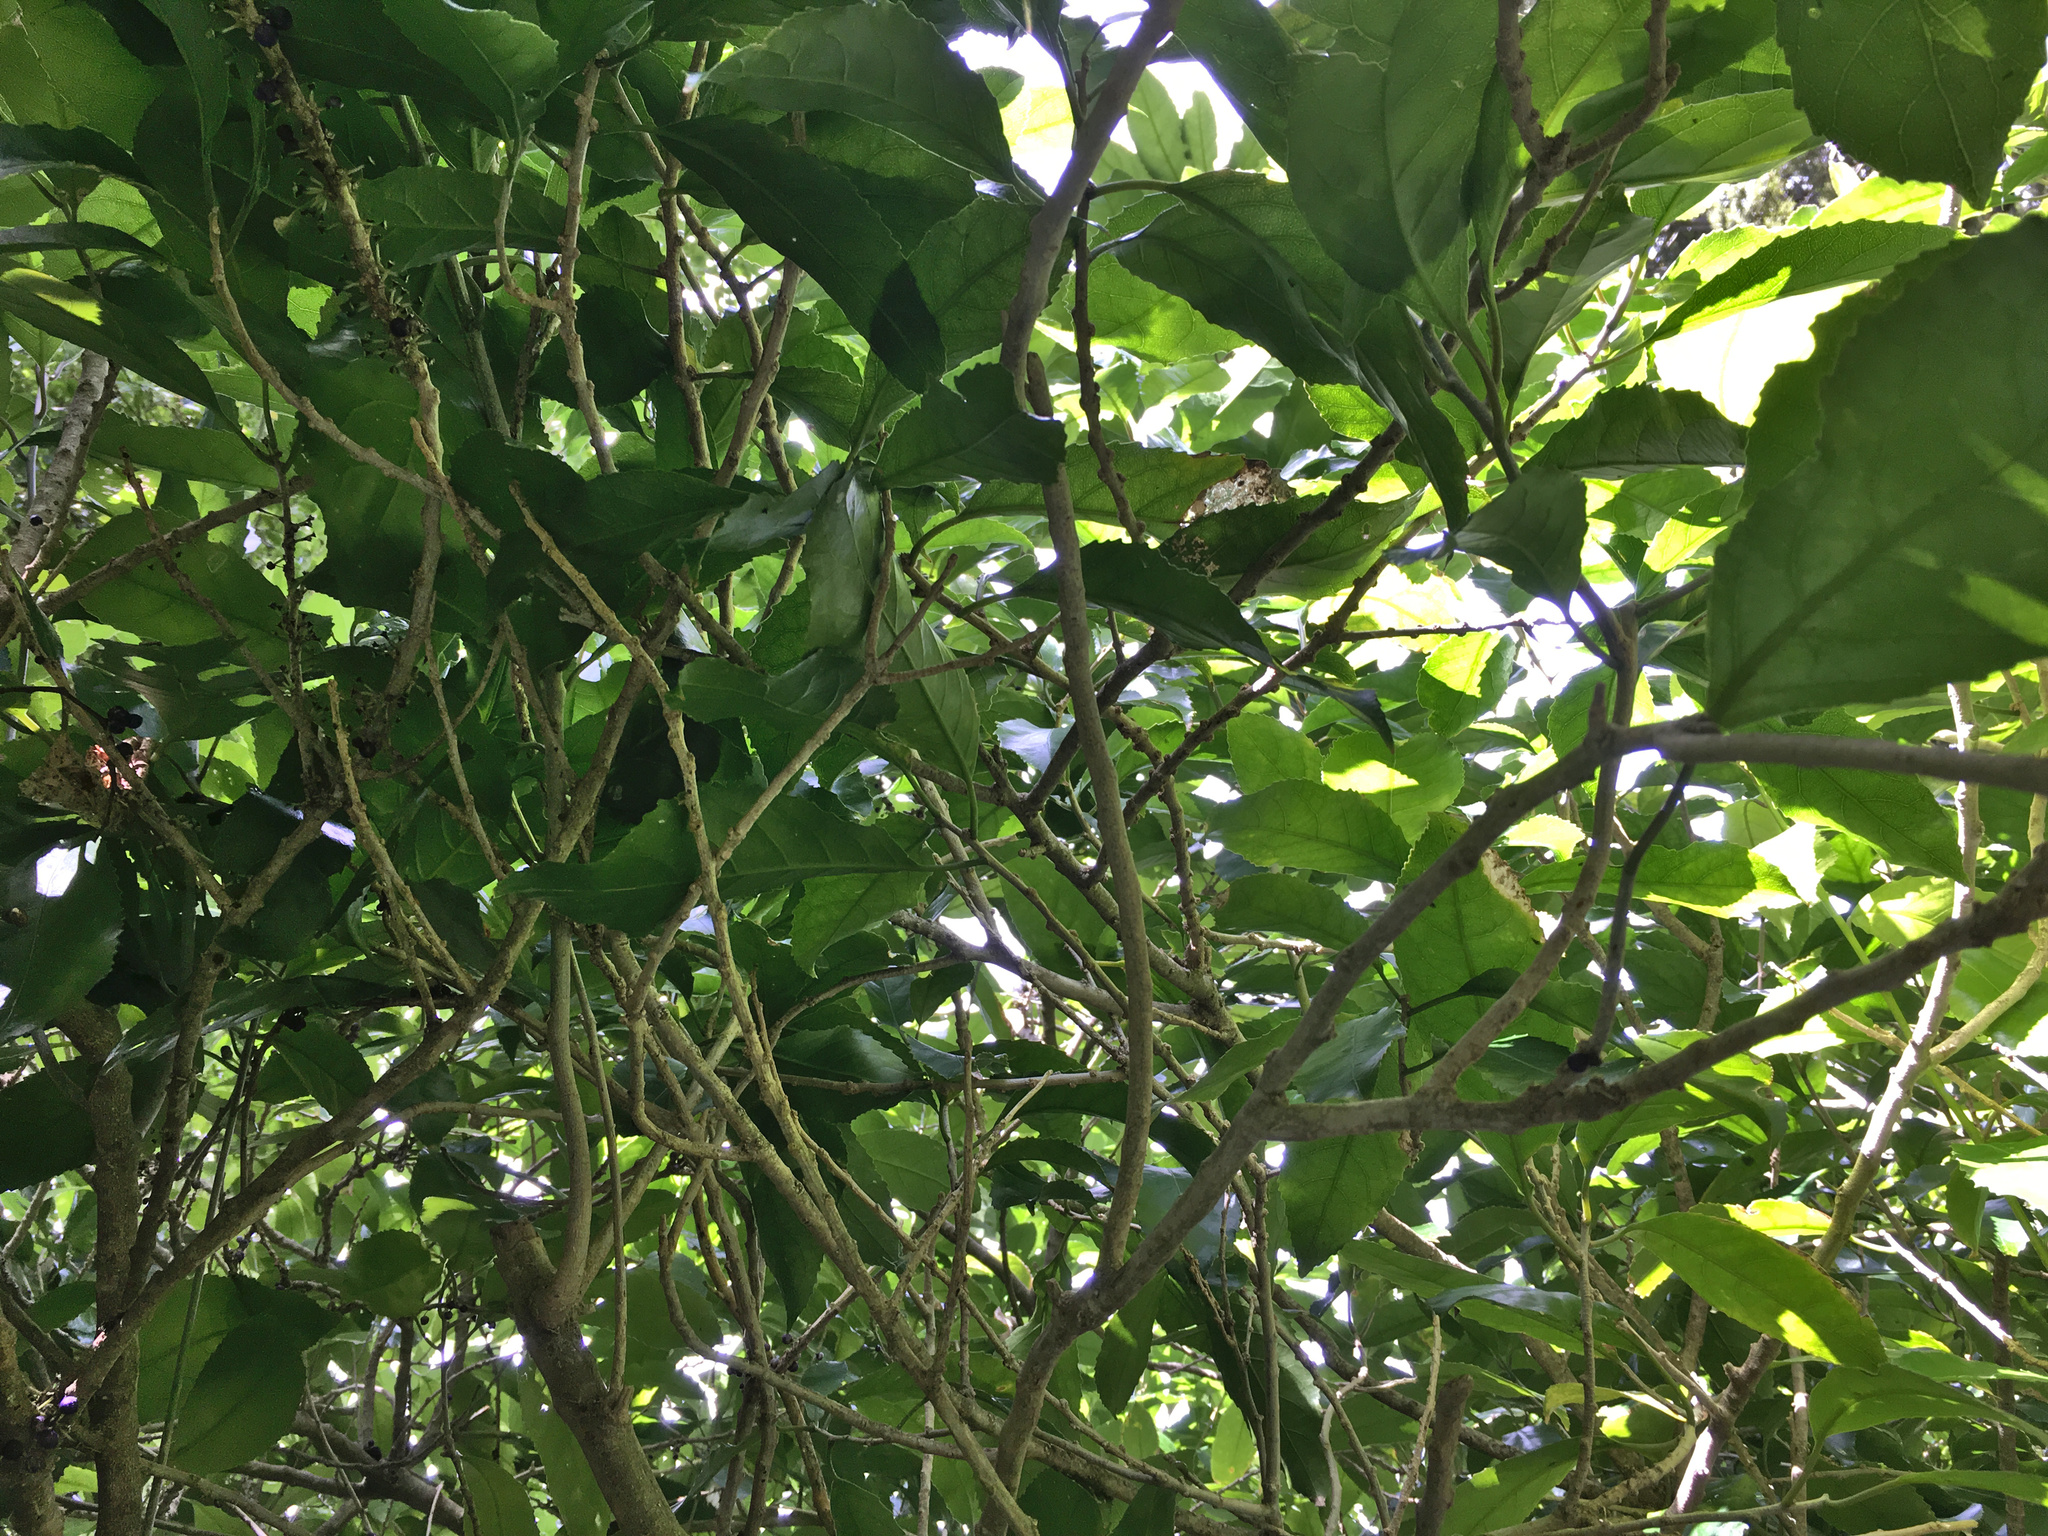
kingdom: Plantae
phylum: Tracheophyta
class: Magnoliopsida
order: Malpighiales
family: Violaceae
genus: Melicytus
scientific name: Melicytus ramiflorus
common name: Mahoe
